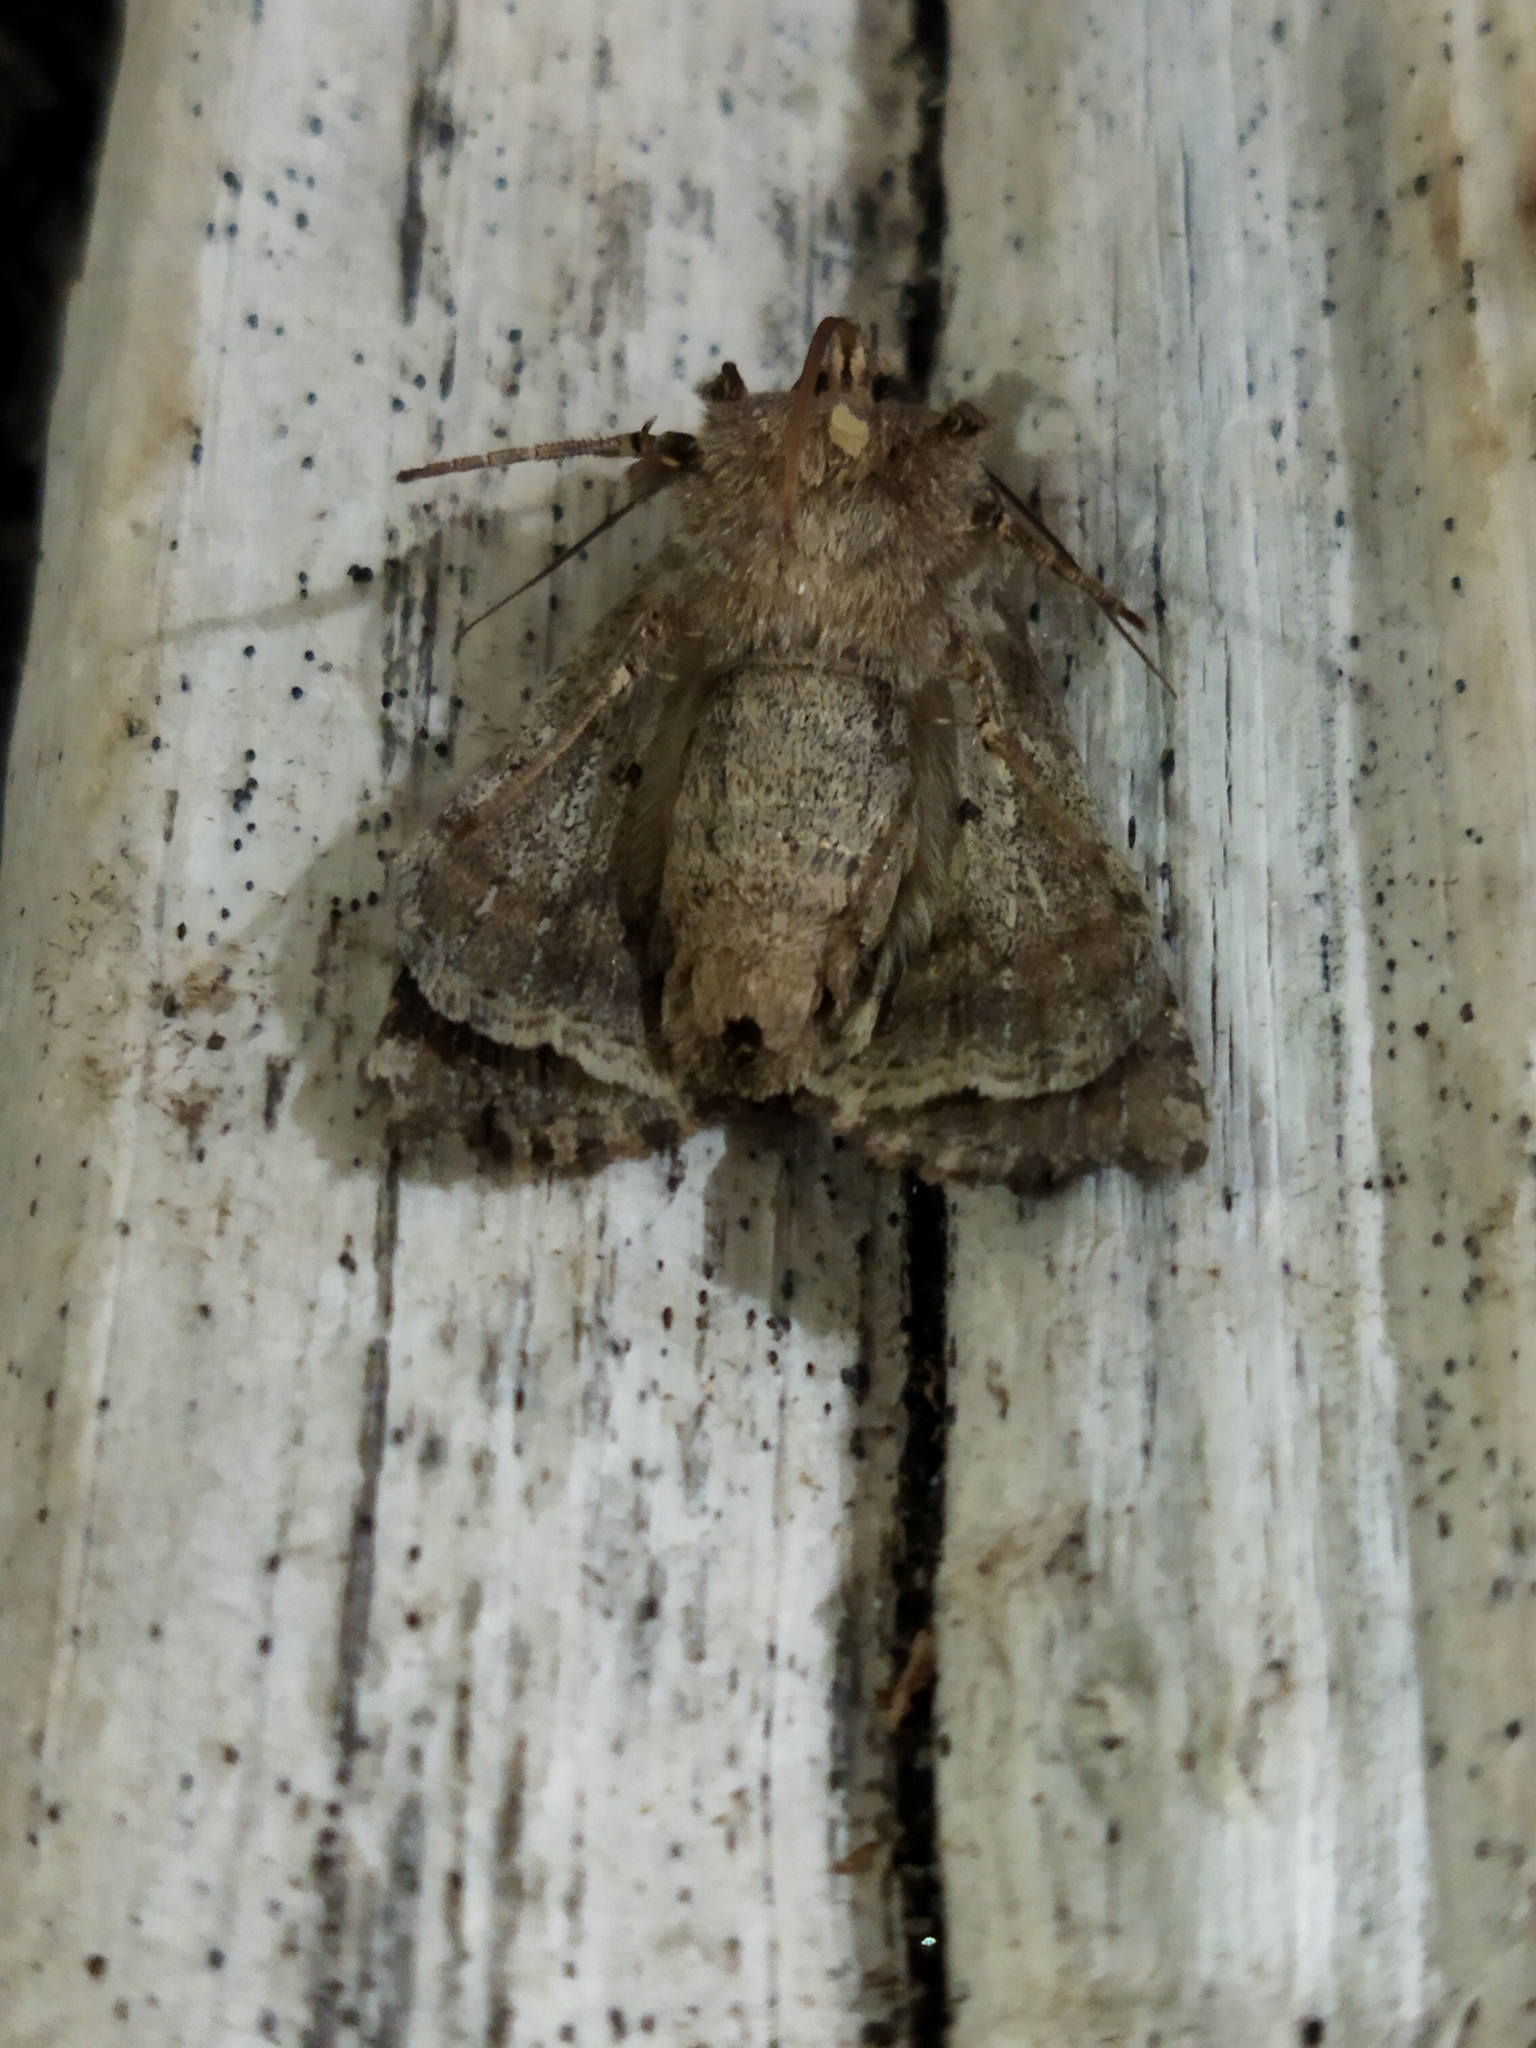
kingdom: Animalia
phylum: Arthropoda
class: Insecta
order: Lepidoptera
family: Noctuidae
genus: Anarta
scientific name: Anarta trifolii
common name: Clover cutworm moth
